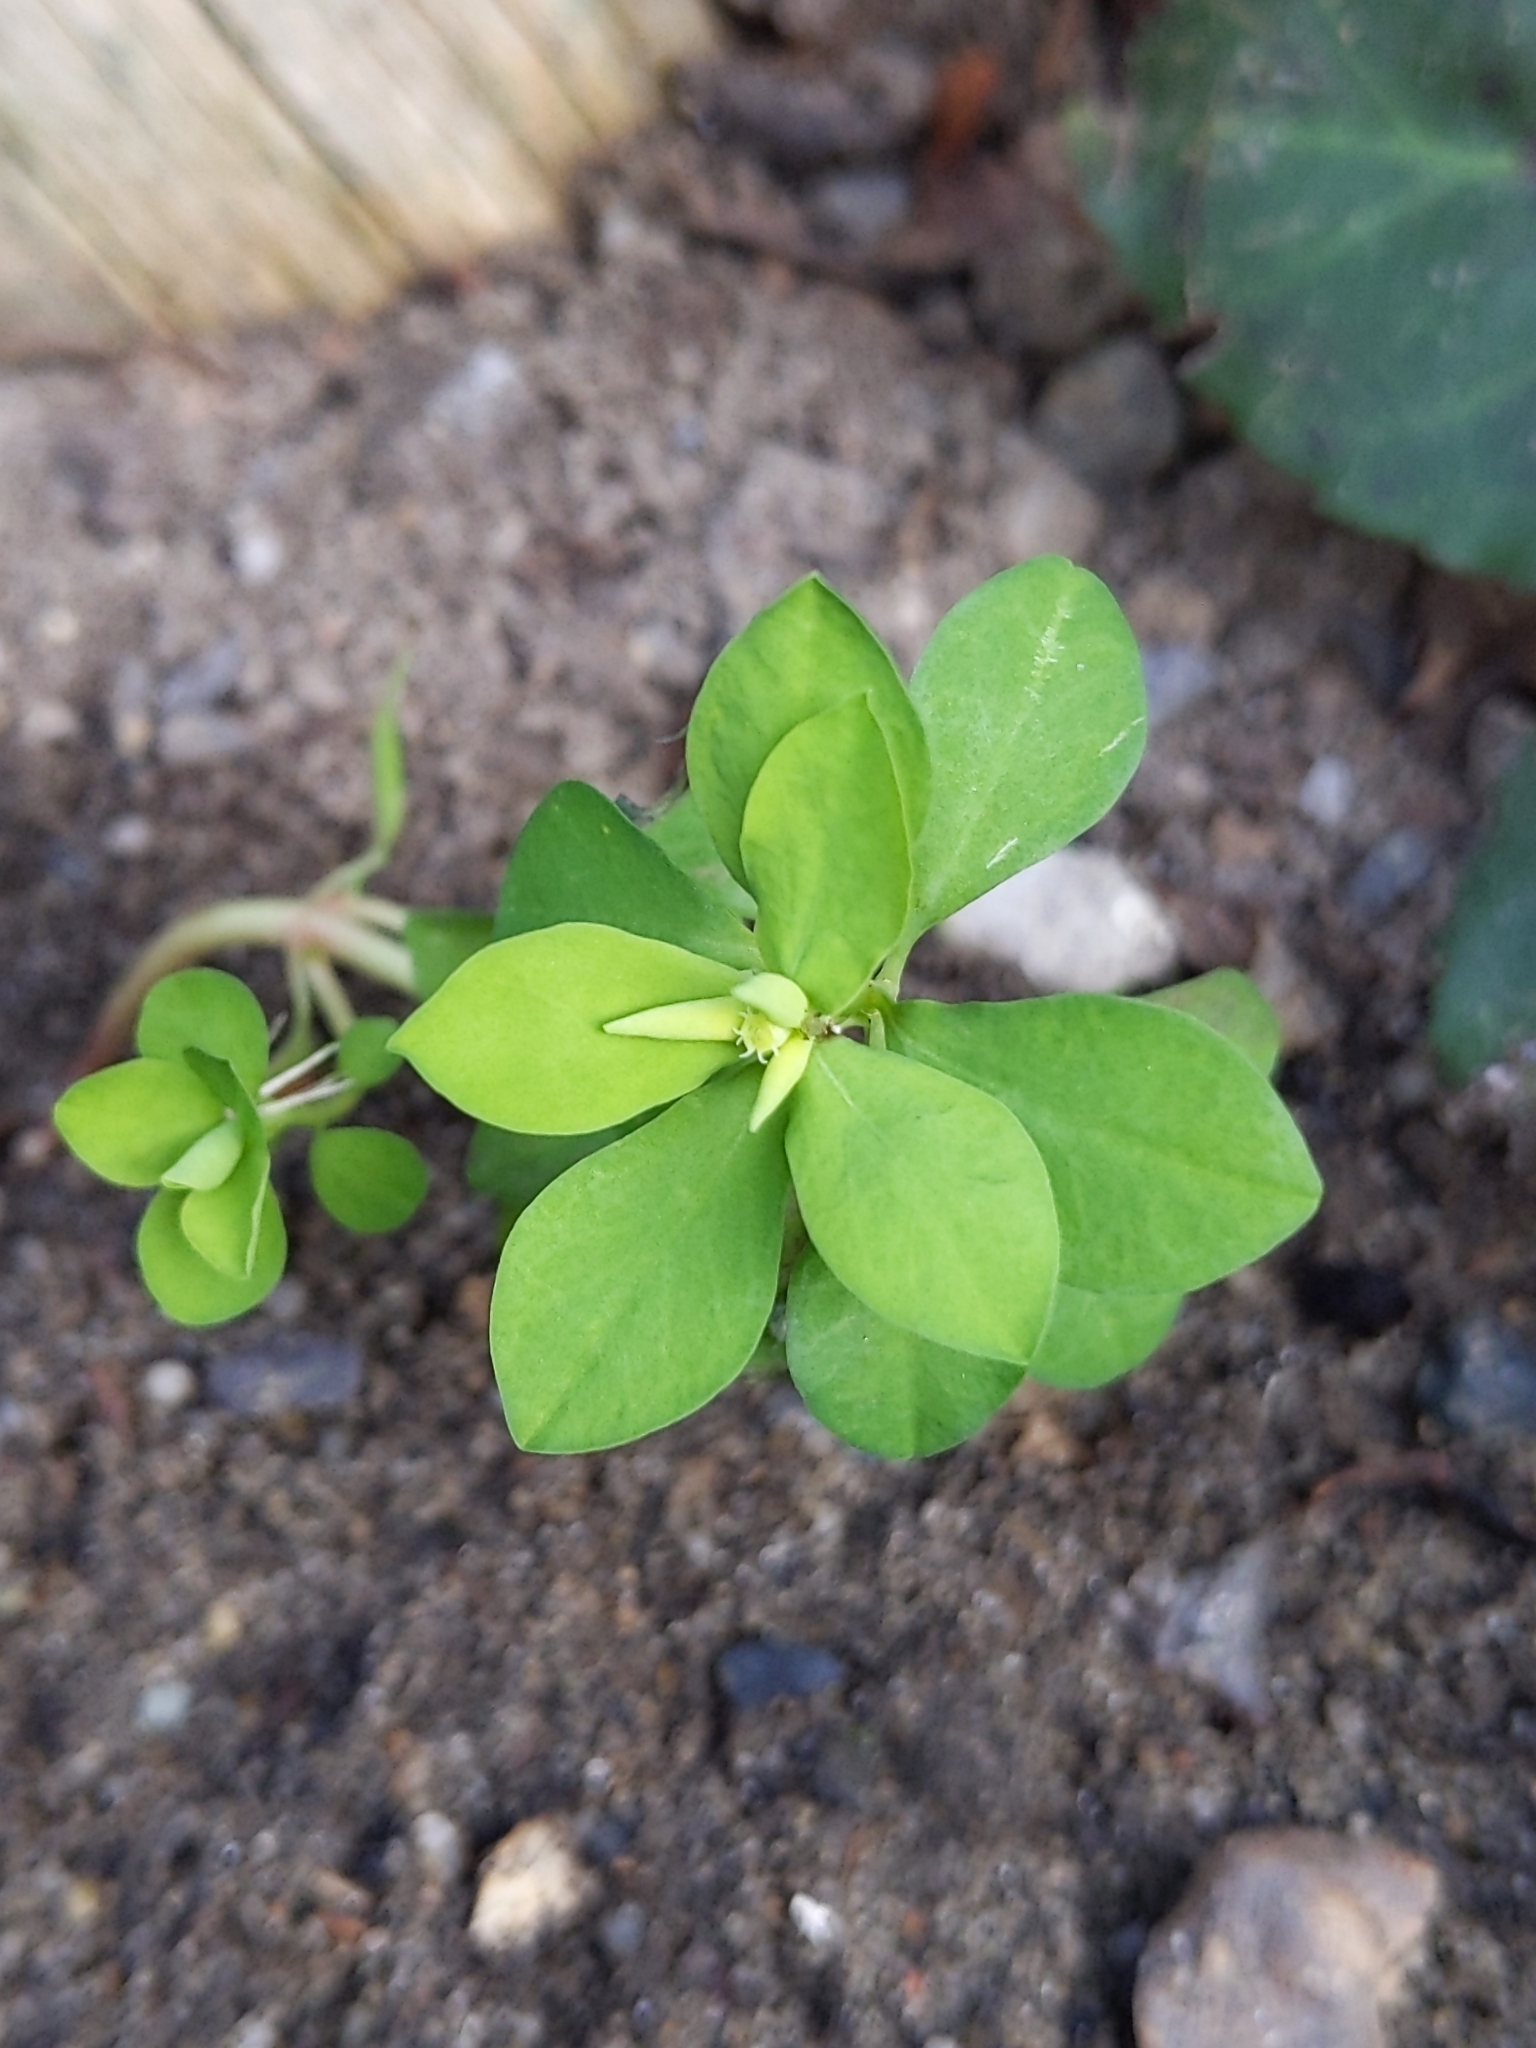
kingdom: Plantae
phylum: Tracheophyta
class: Magnoliopsida
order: Malpighiales
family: Euphorbiaceae
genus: Euphorbia
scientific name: Euphorbia peplus
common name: Petty spurge
